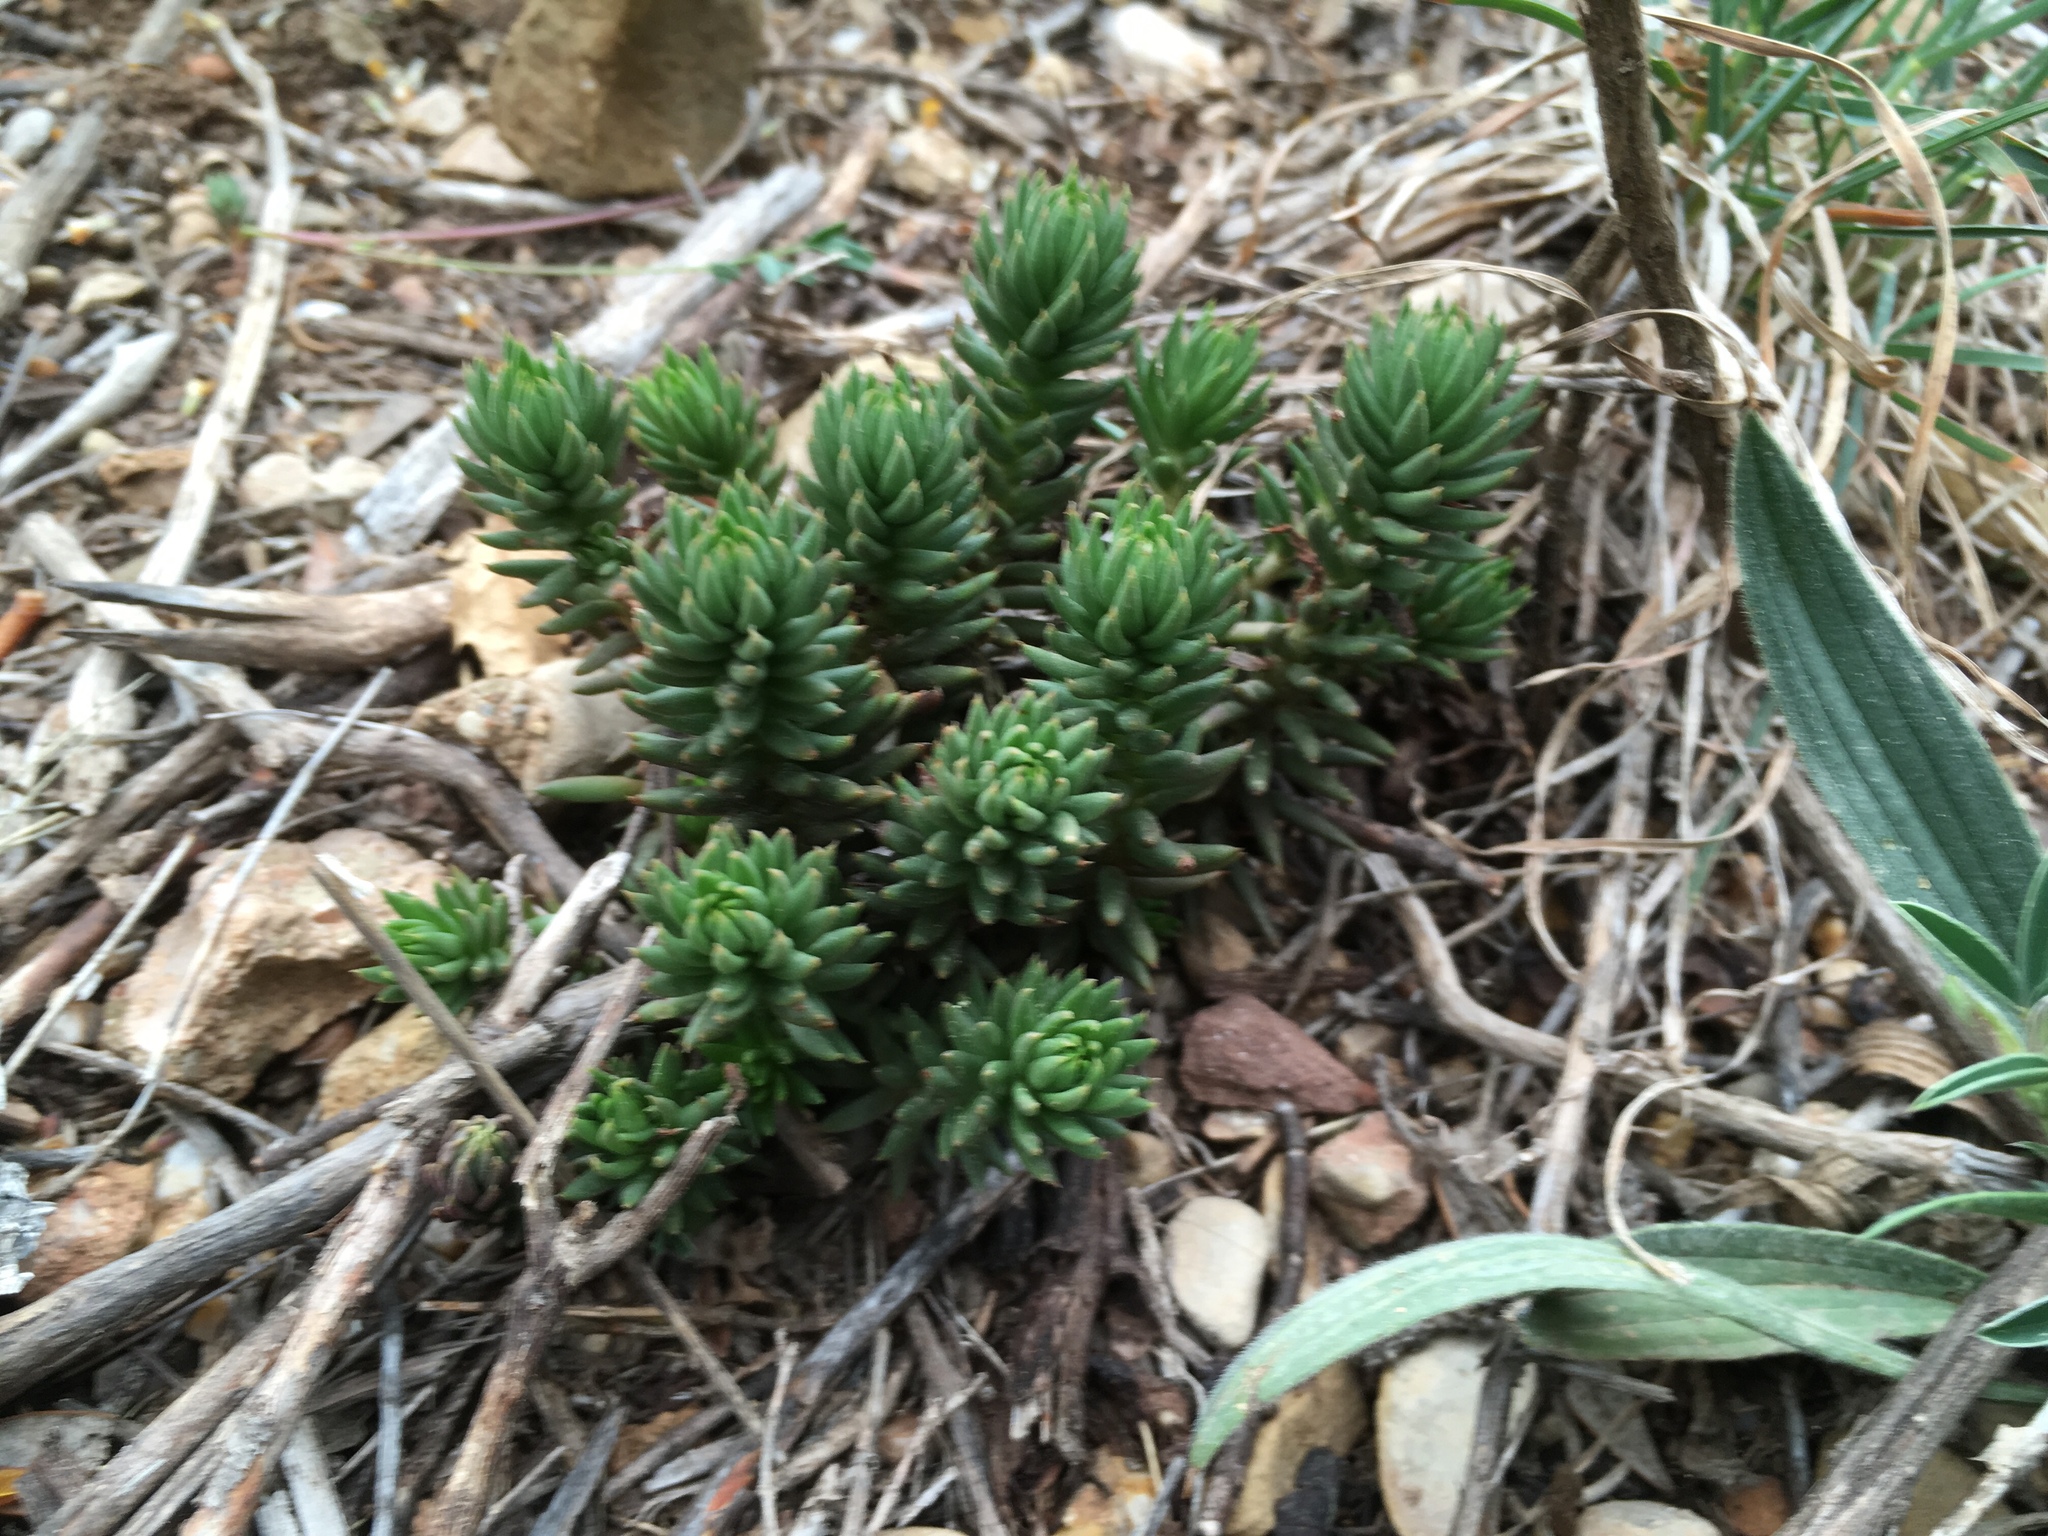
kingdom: Plantae
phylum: Tracheophyta
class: Magnoliopsida
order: Saxifragales
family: Crassulaceae
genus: Petrosedum
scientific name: Petrosedum sediforme
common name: Pale stonecrop
